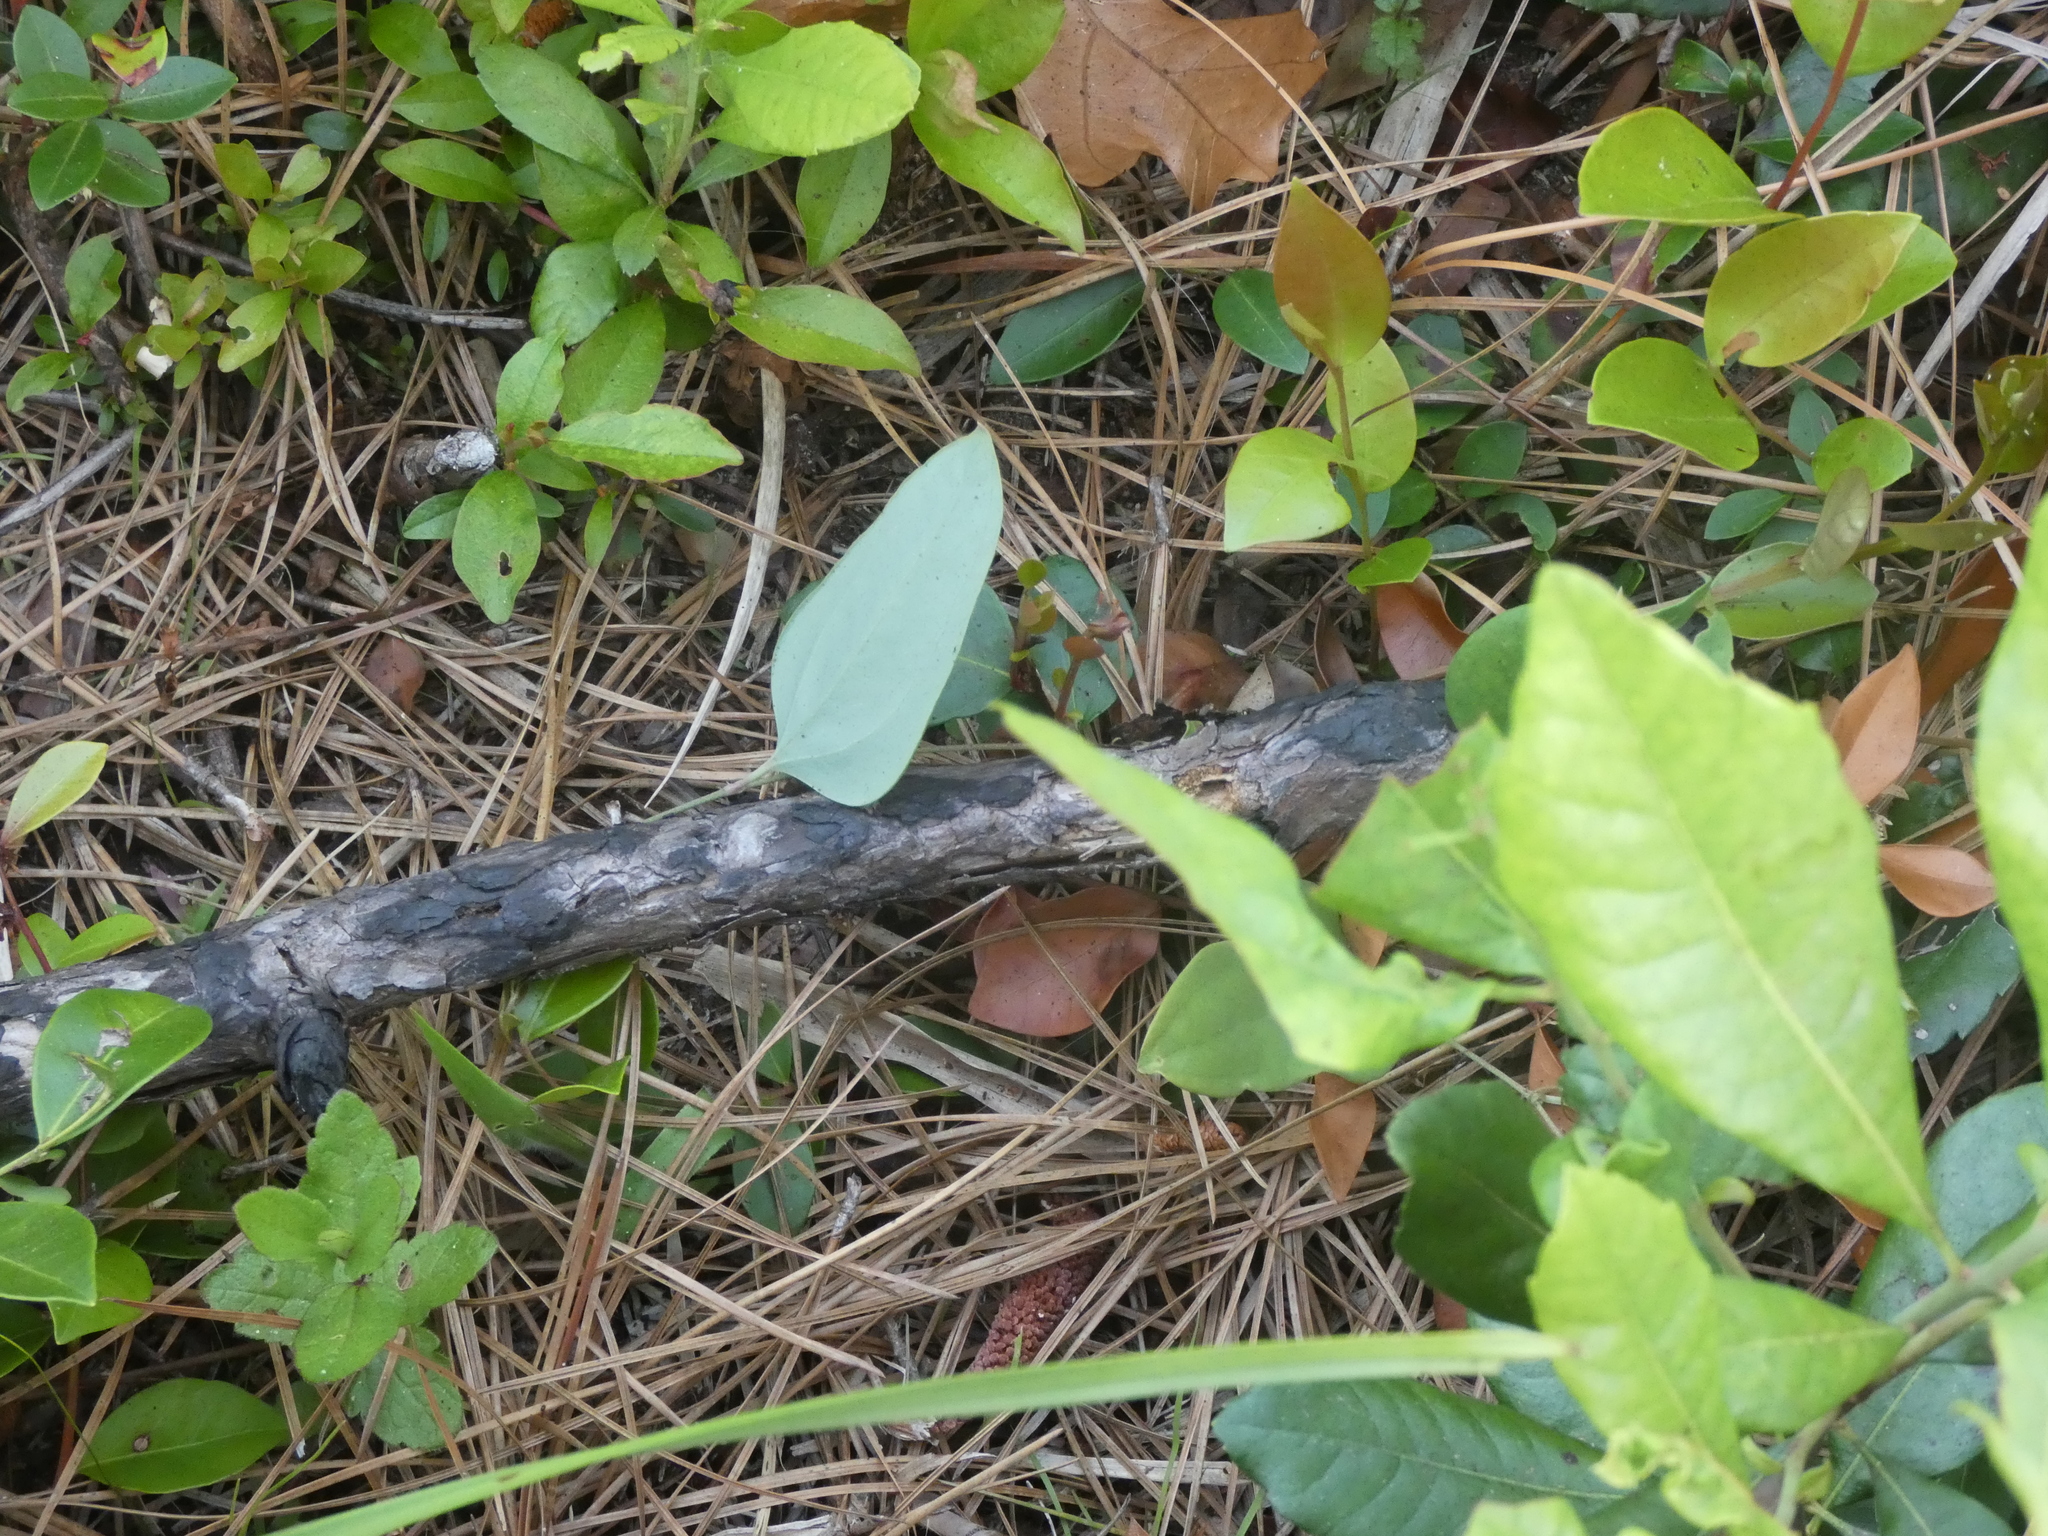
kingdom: Plantae
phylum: Tracheophyta
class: Liliopsida
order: Liliales
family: Smilacaceae
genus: Smilax
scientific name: Smilax glauca
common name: Cat greenbrier
